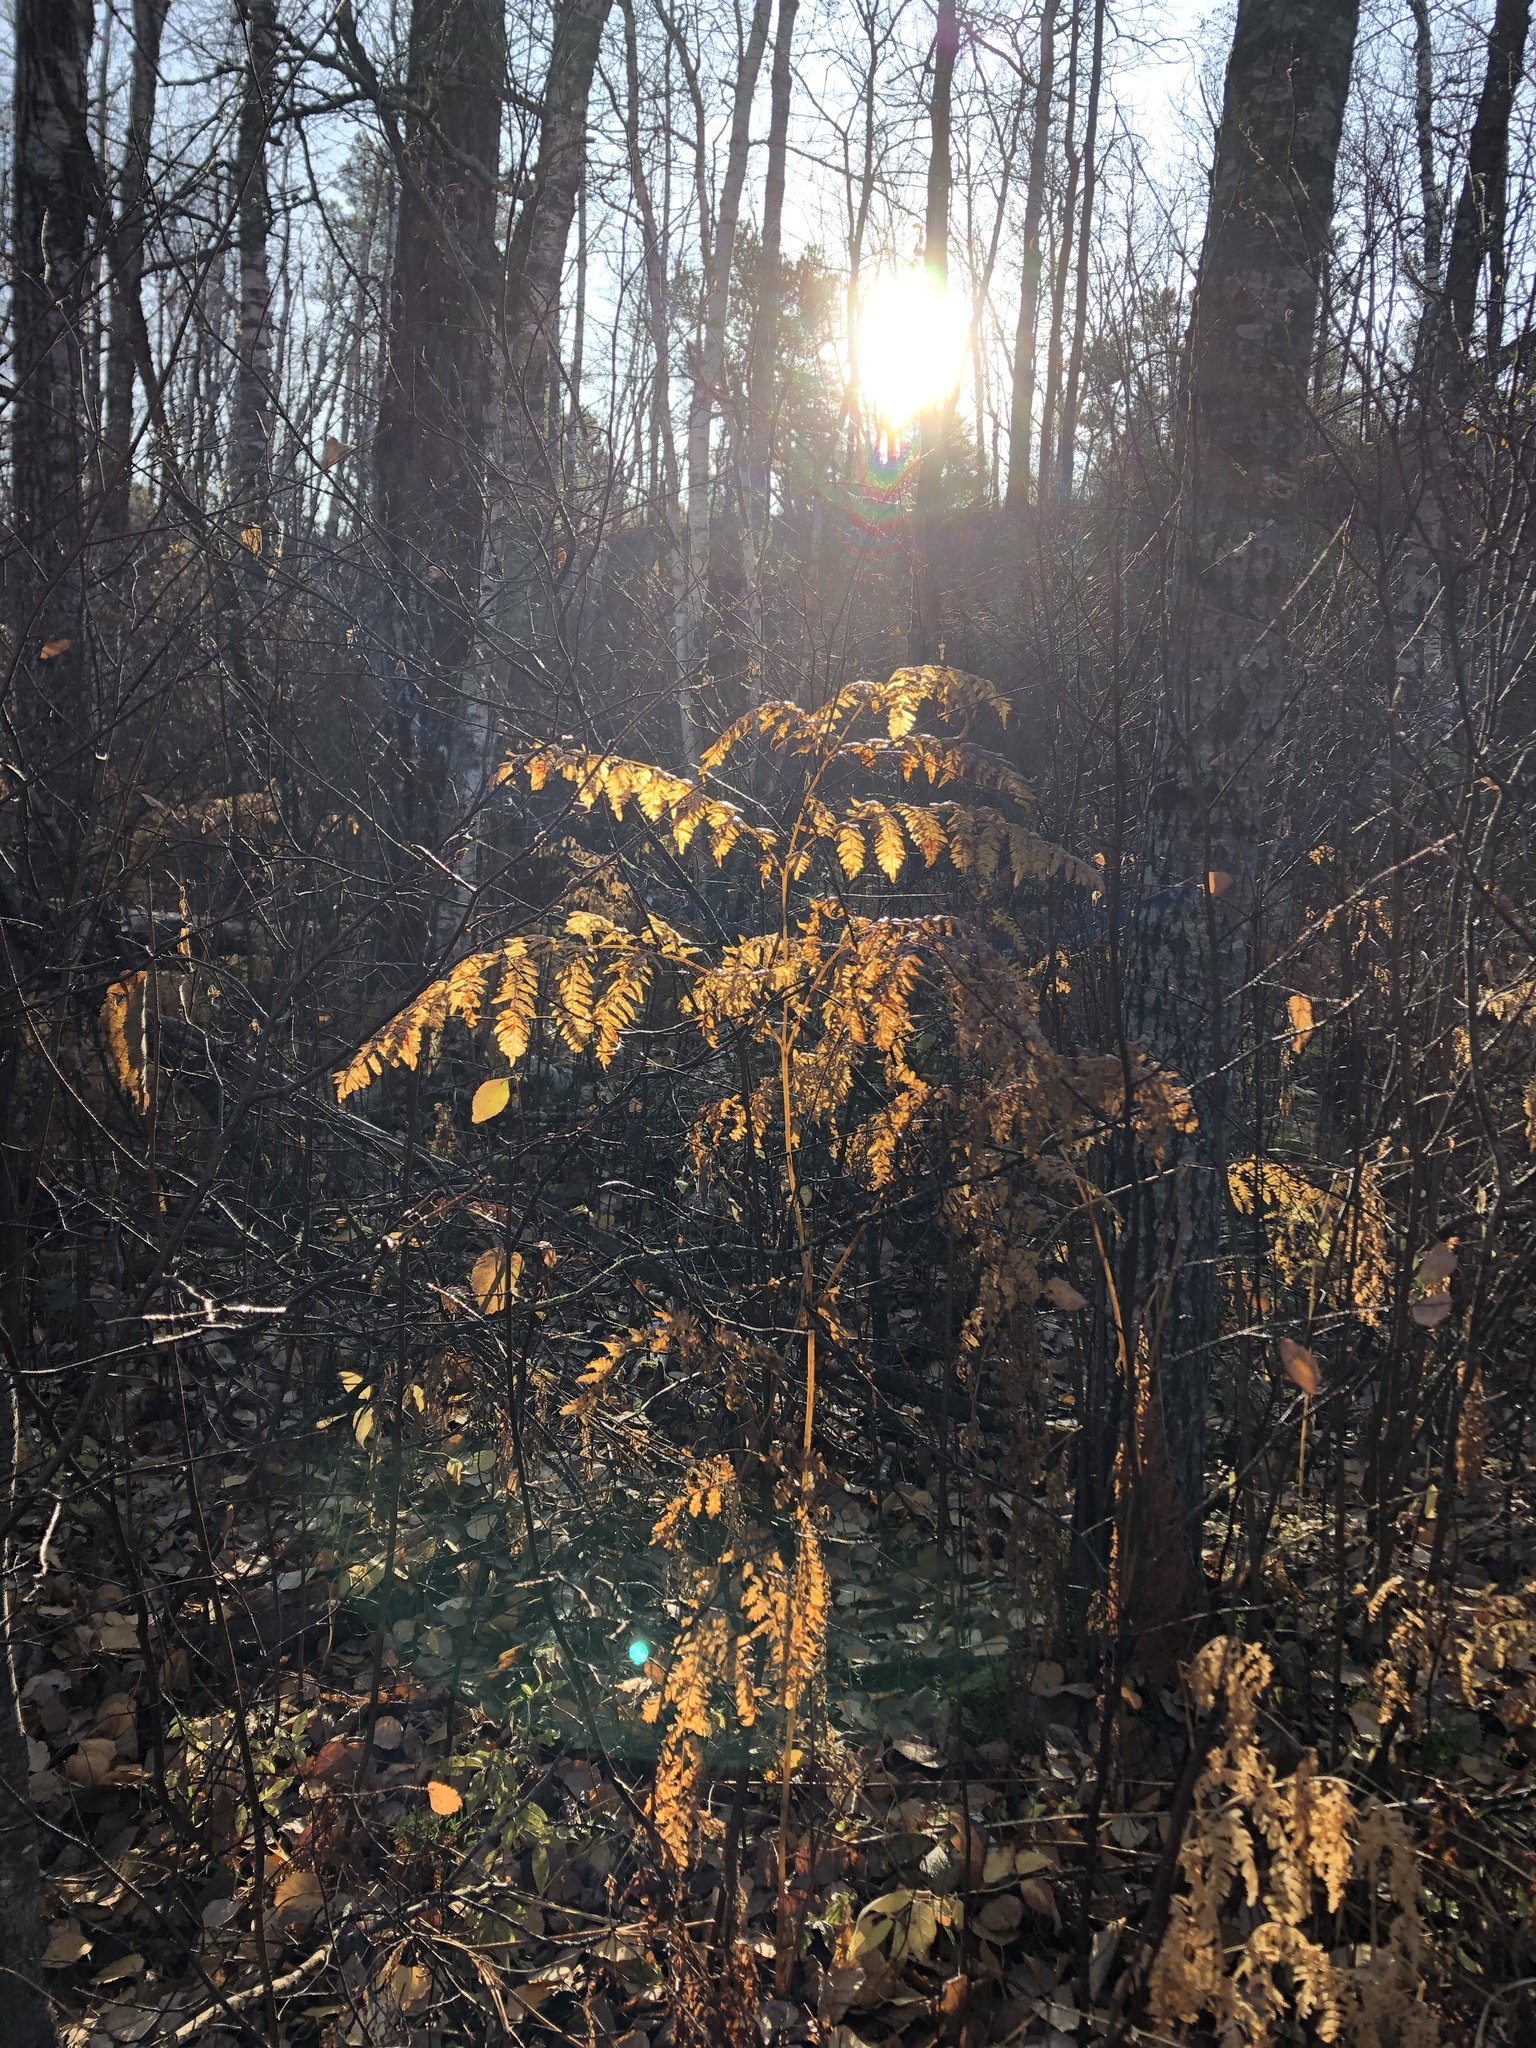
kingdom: Plantae
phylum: Tracheophyta
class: Polypodiopsida
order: Polypodiales
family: Dennstaedtiaceae
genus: Pteridium
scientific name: Pteridium aquilinum
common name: Bracken
